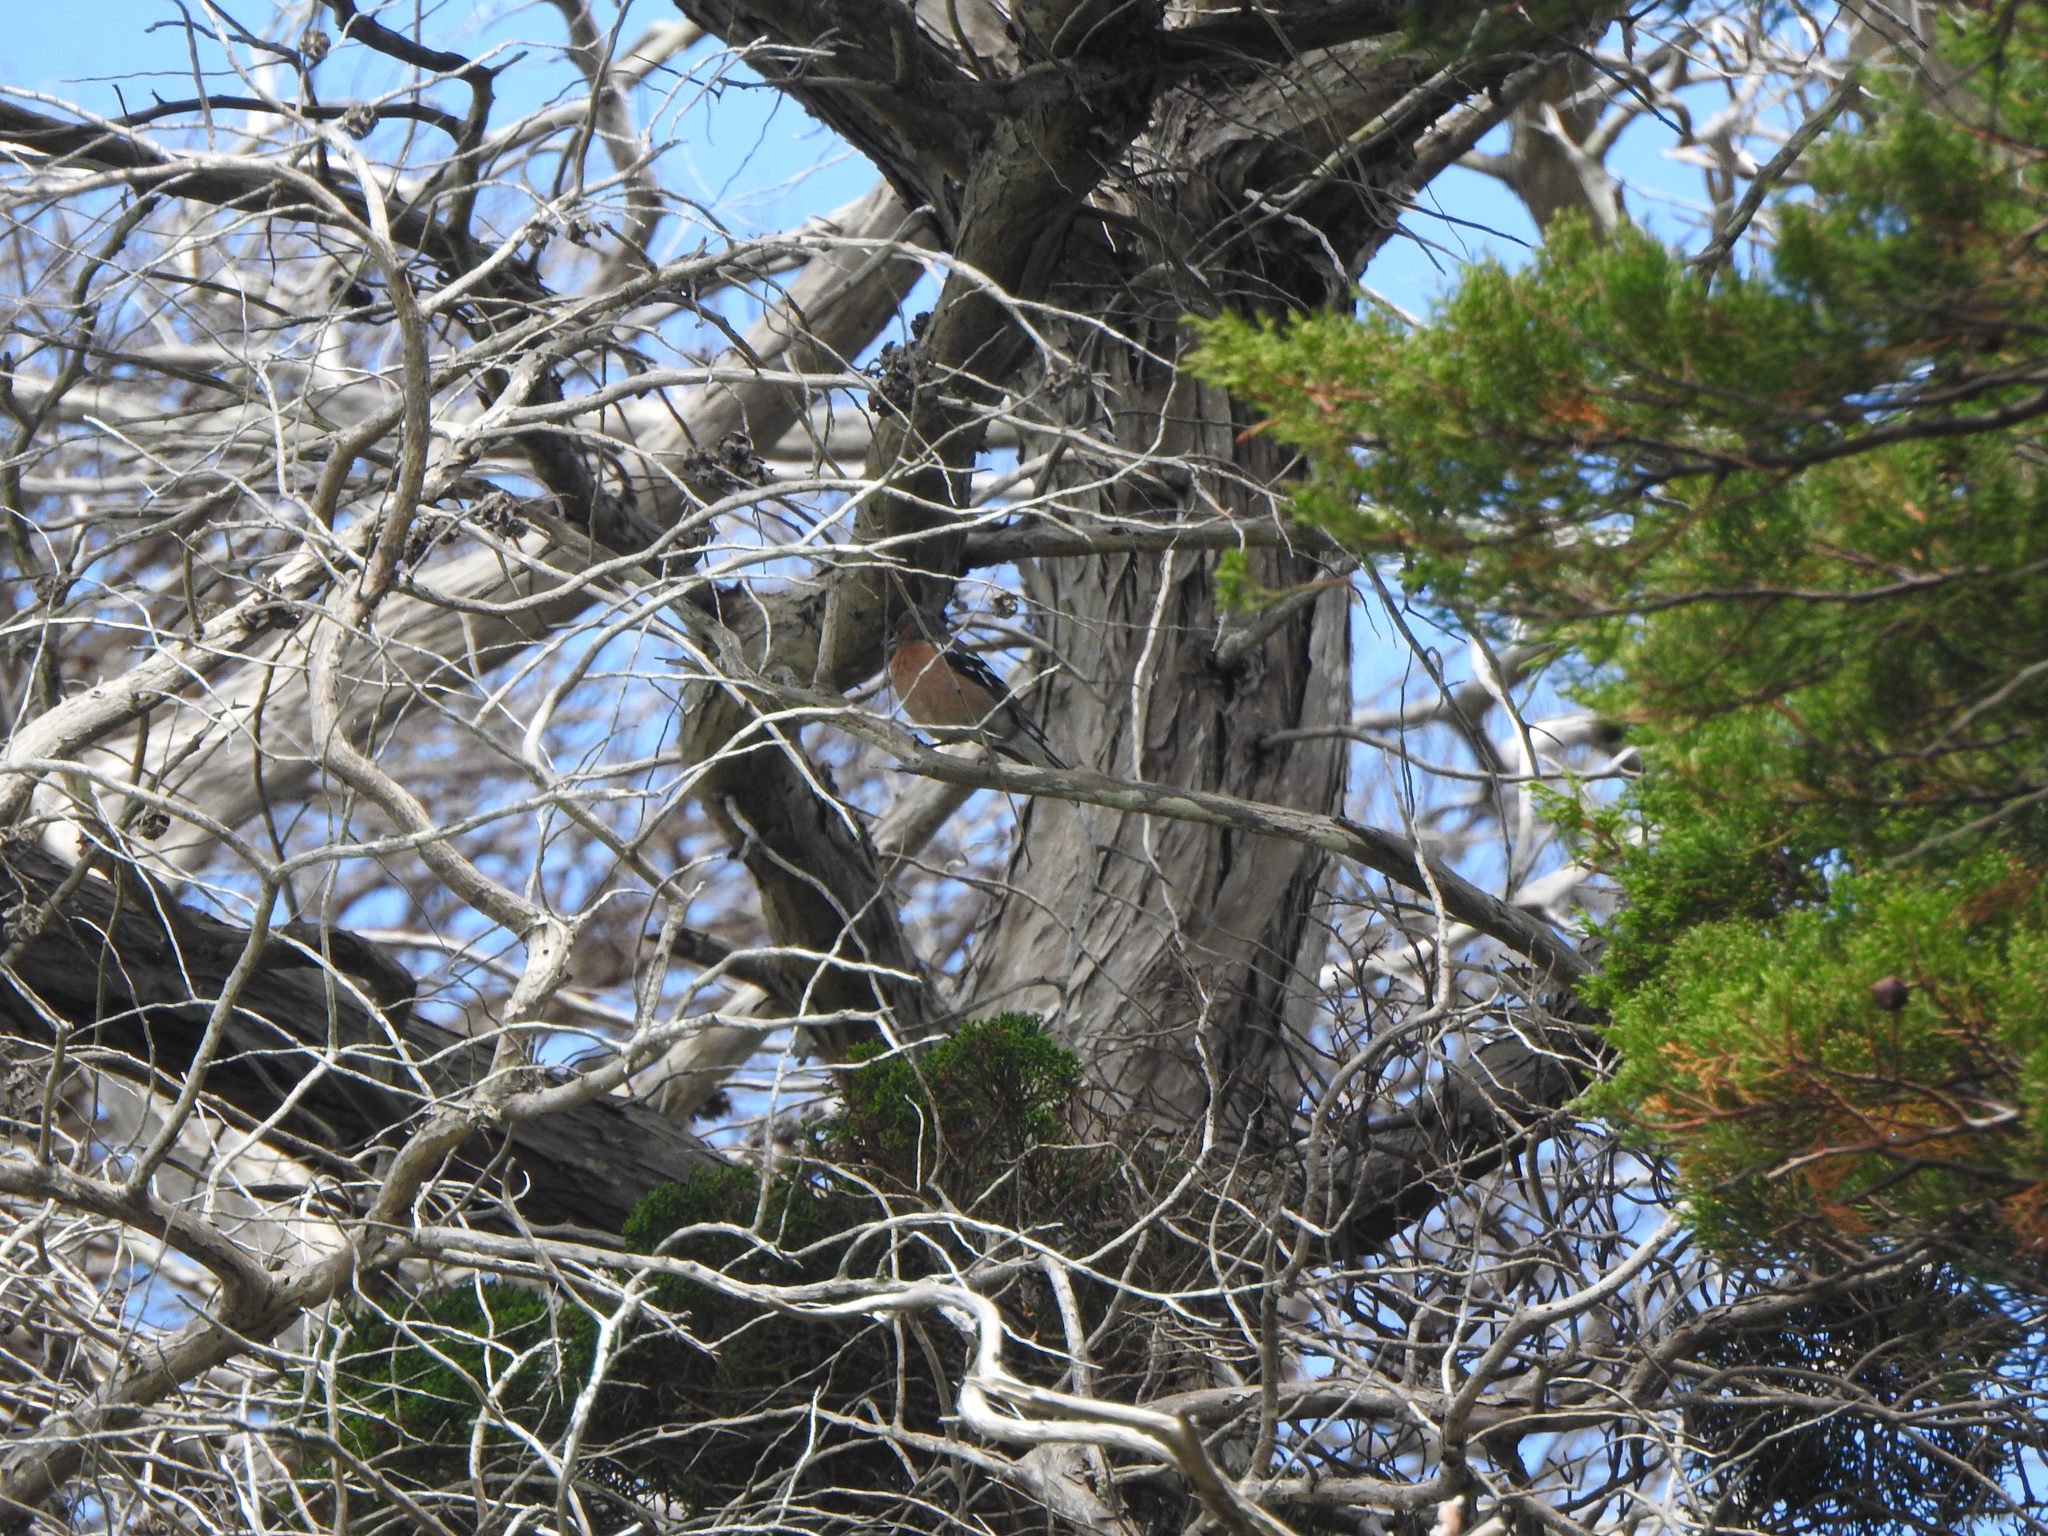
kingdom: Animalia
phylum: Chordata
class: Aves
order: Passeriformes
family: Fringillidae
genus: Fringilla
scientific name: Fringilla coelebs
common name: Common chaffinch
